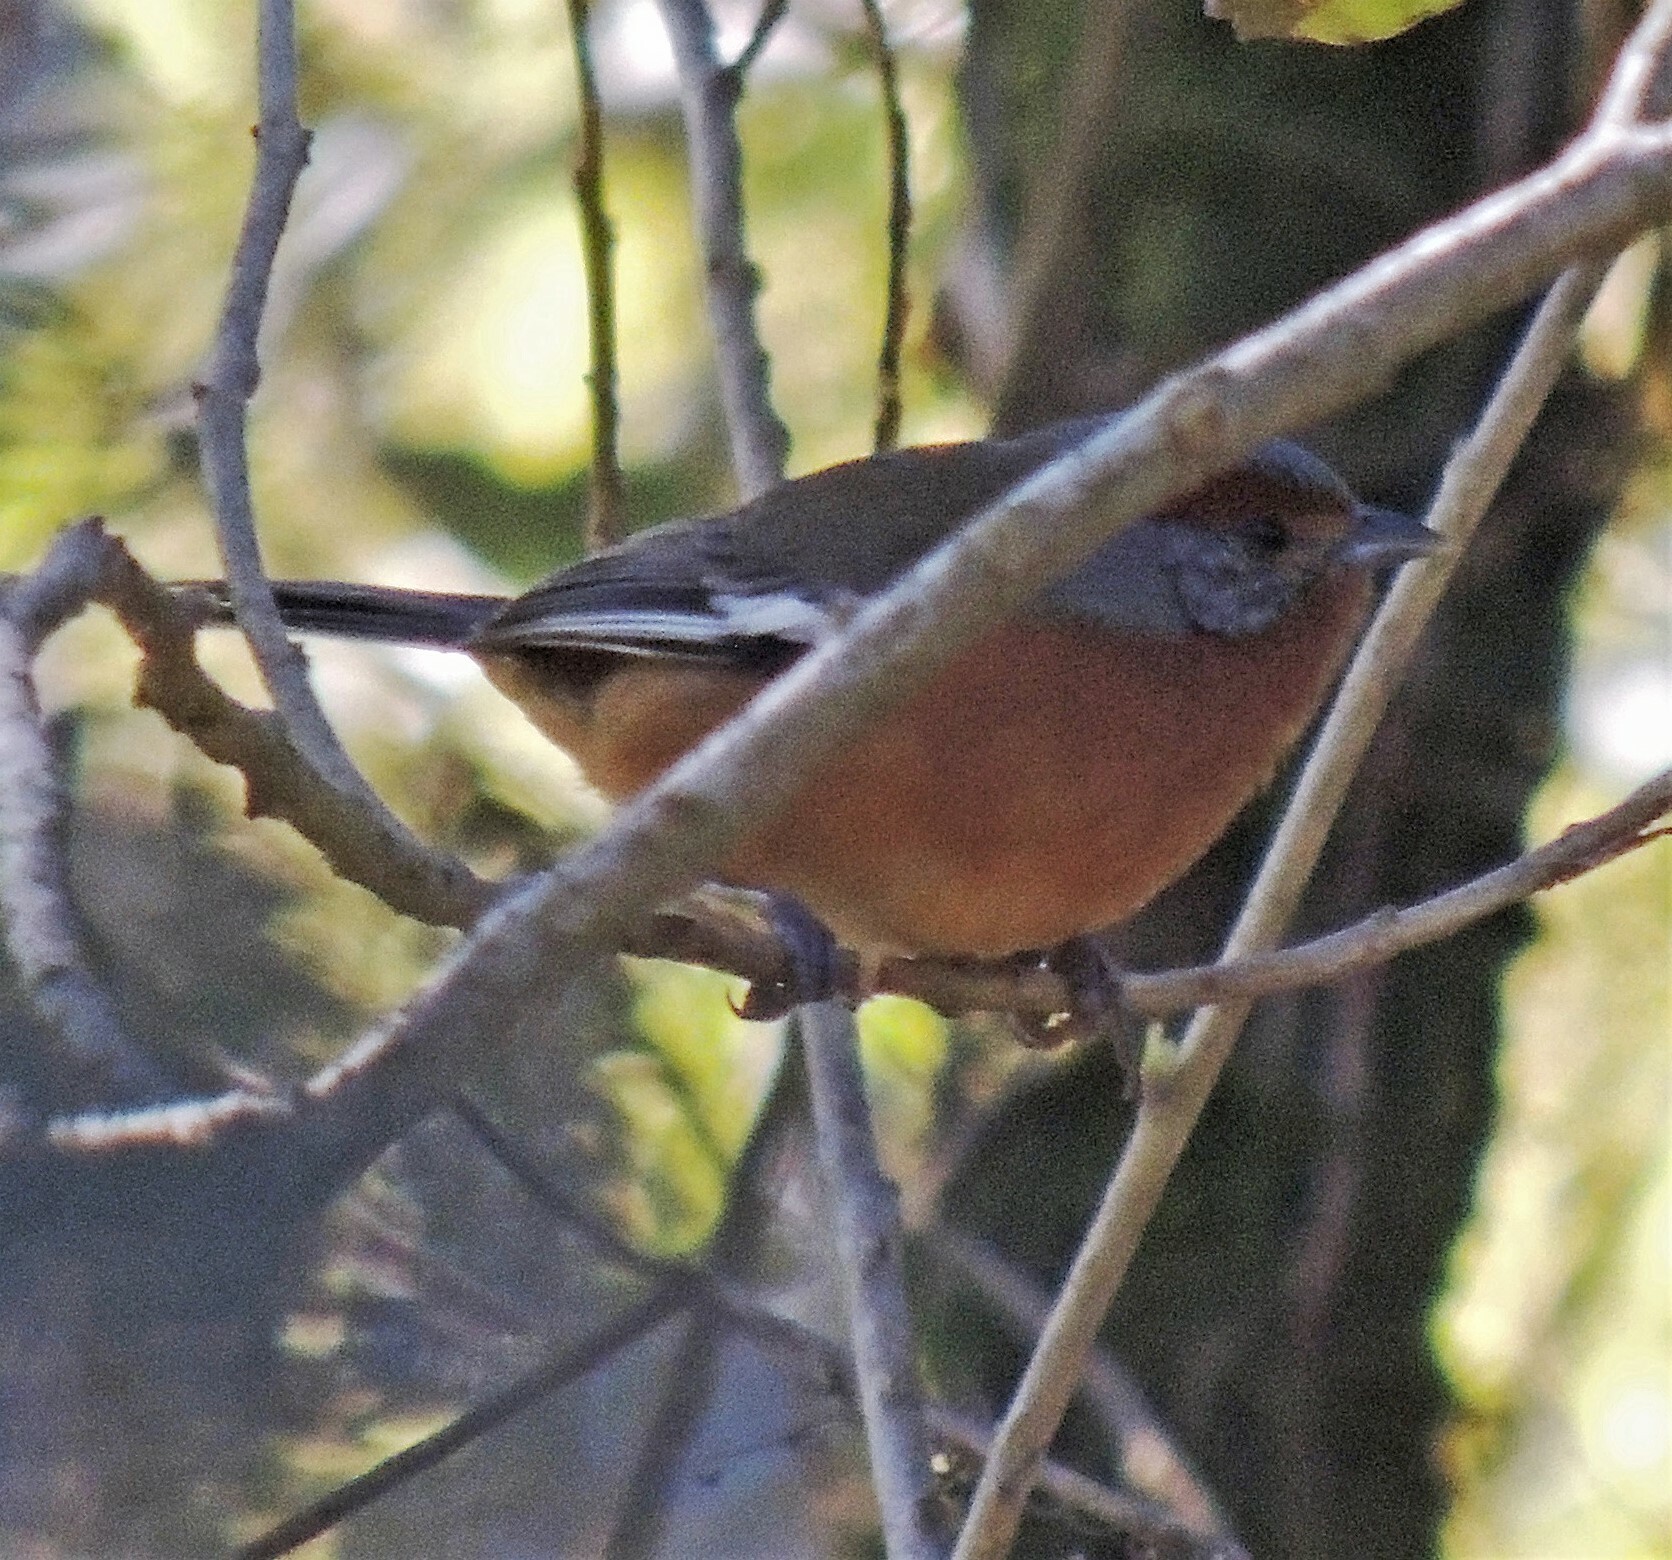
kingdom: Animalia
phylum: Chordata
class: Aves
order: Passeriformes
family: Thraupidae
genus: Microspingus
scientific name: Microspingus erythrophrys
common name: Rusty-browed warbling-finch
